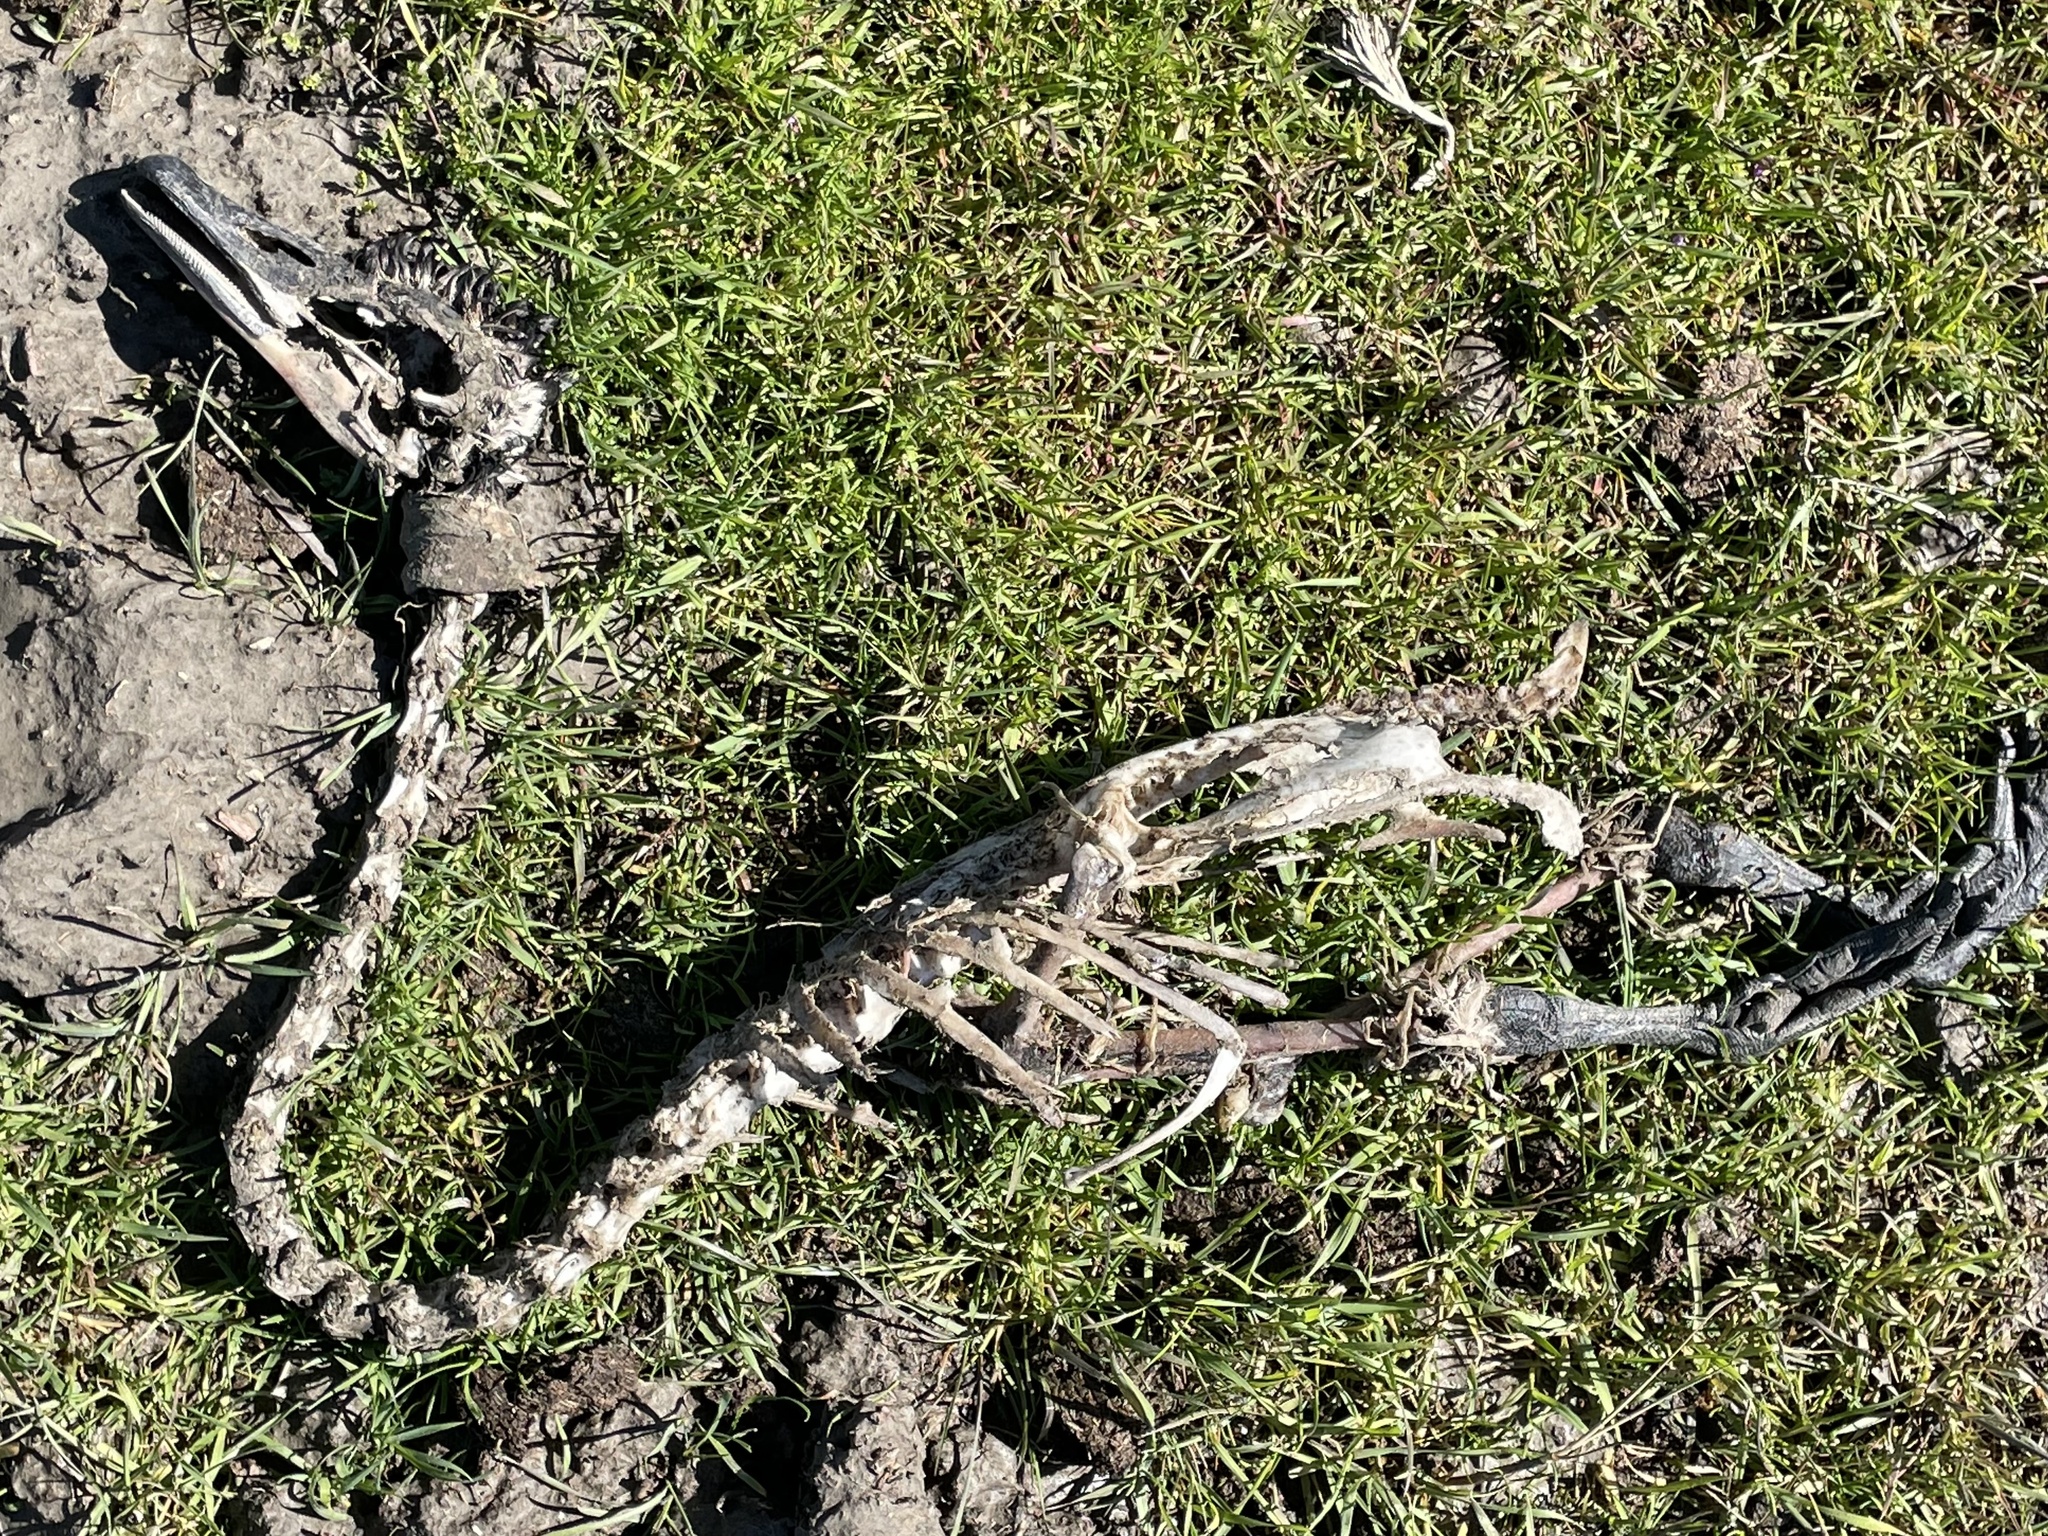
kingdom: Animalia
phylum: Chordata
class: Aves
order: Anseriformes
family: Anatidae
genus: Branta
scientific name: Branta canadensis
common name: Canada goose
